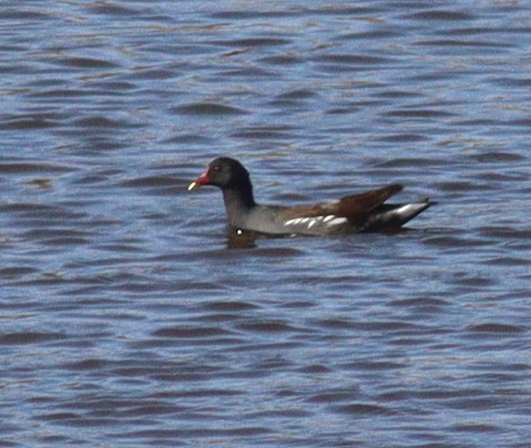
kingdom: Animalia
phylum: Chordata
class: Aves
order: Gruiformes
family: Rallidae
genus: Gallinula
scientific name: Gallinula chloropus
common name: Common moorhen
